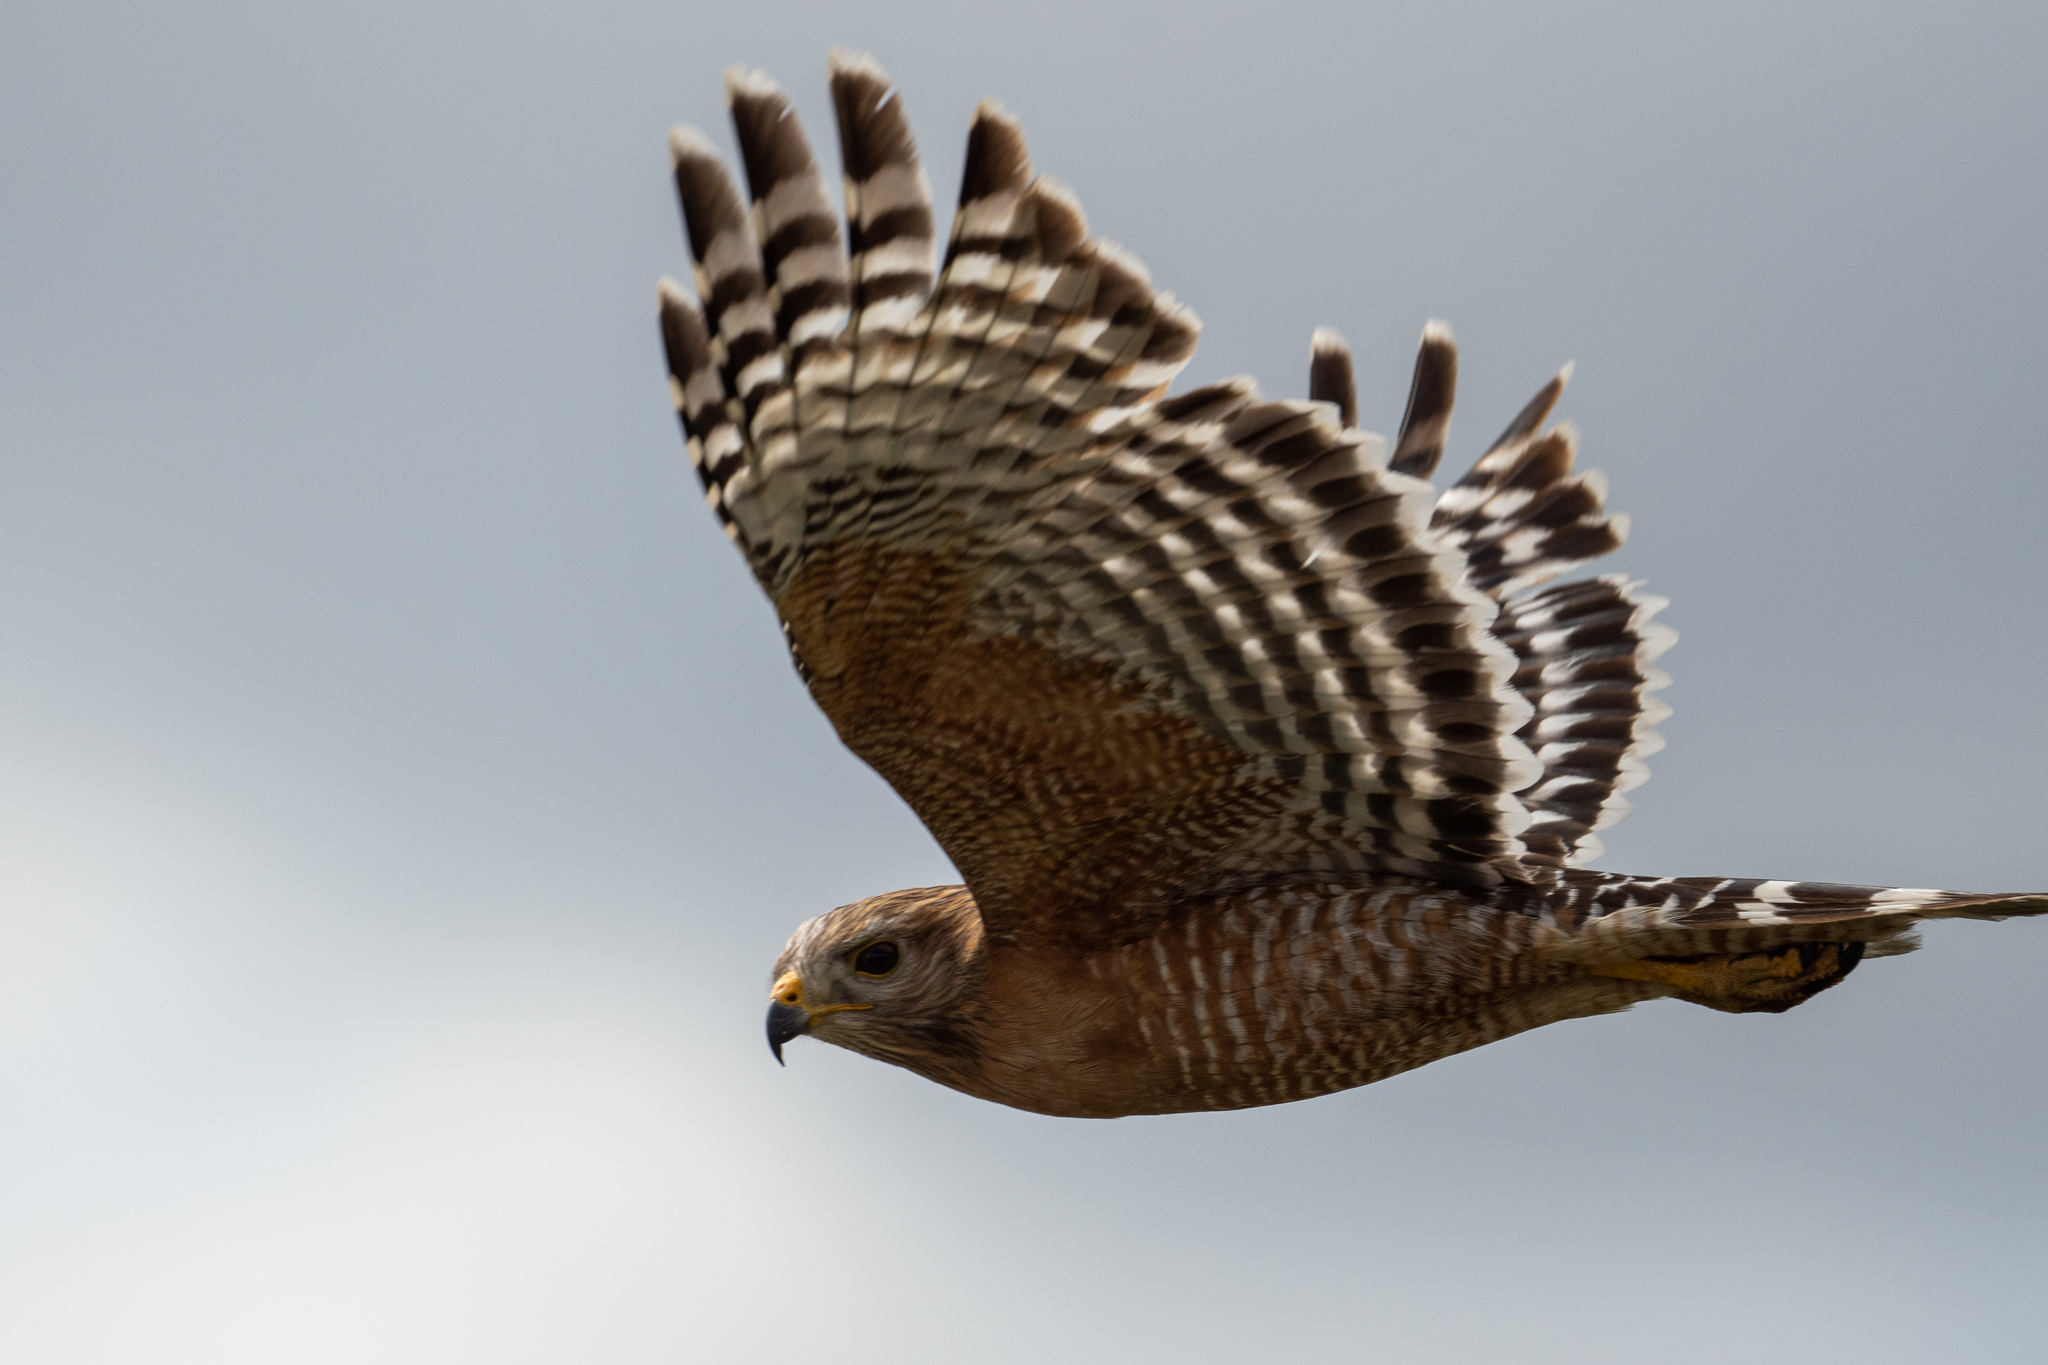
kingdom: Animalia
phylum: Chordata
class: Aves
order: Accipitriformes
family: Accipitridae
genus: Buteo
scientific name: Buteo lineatus
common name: Red-shouldered hawk
